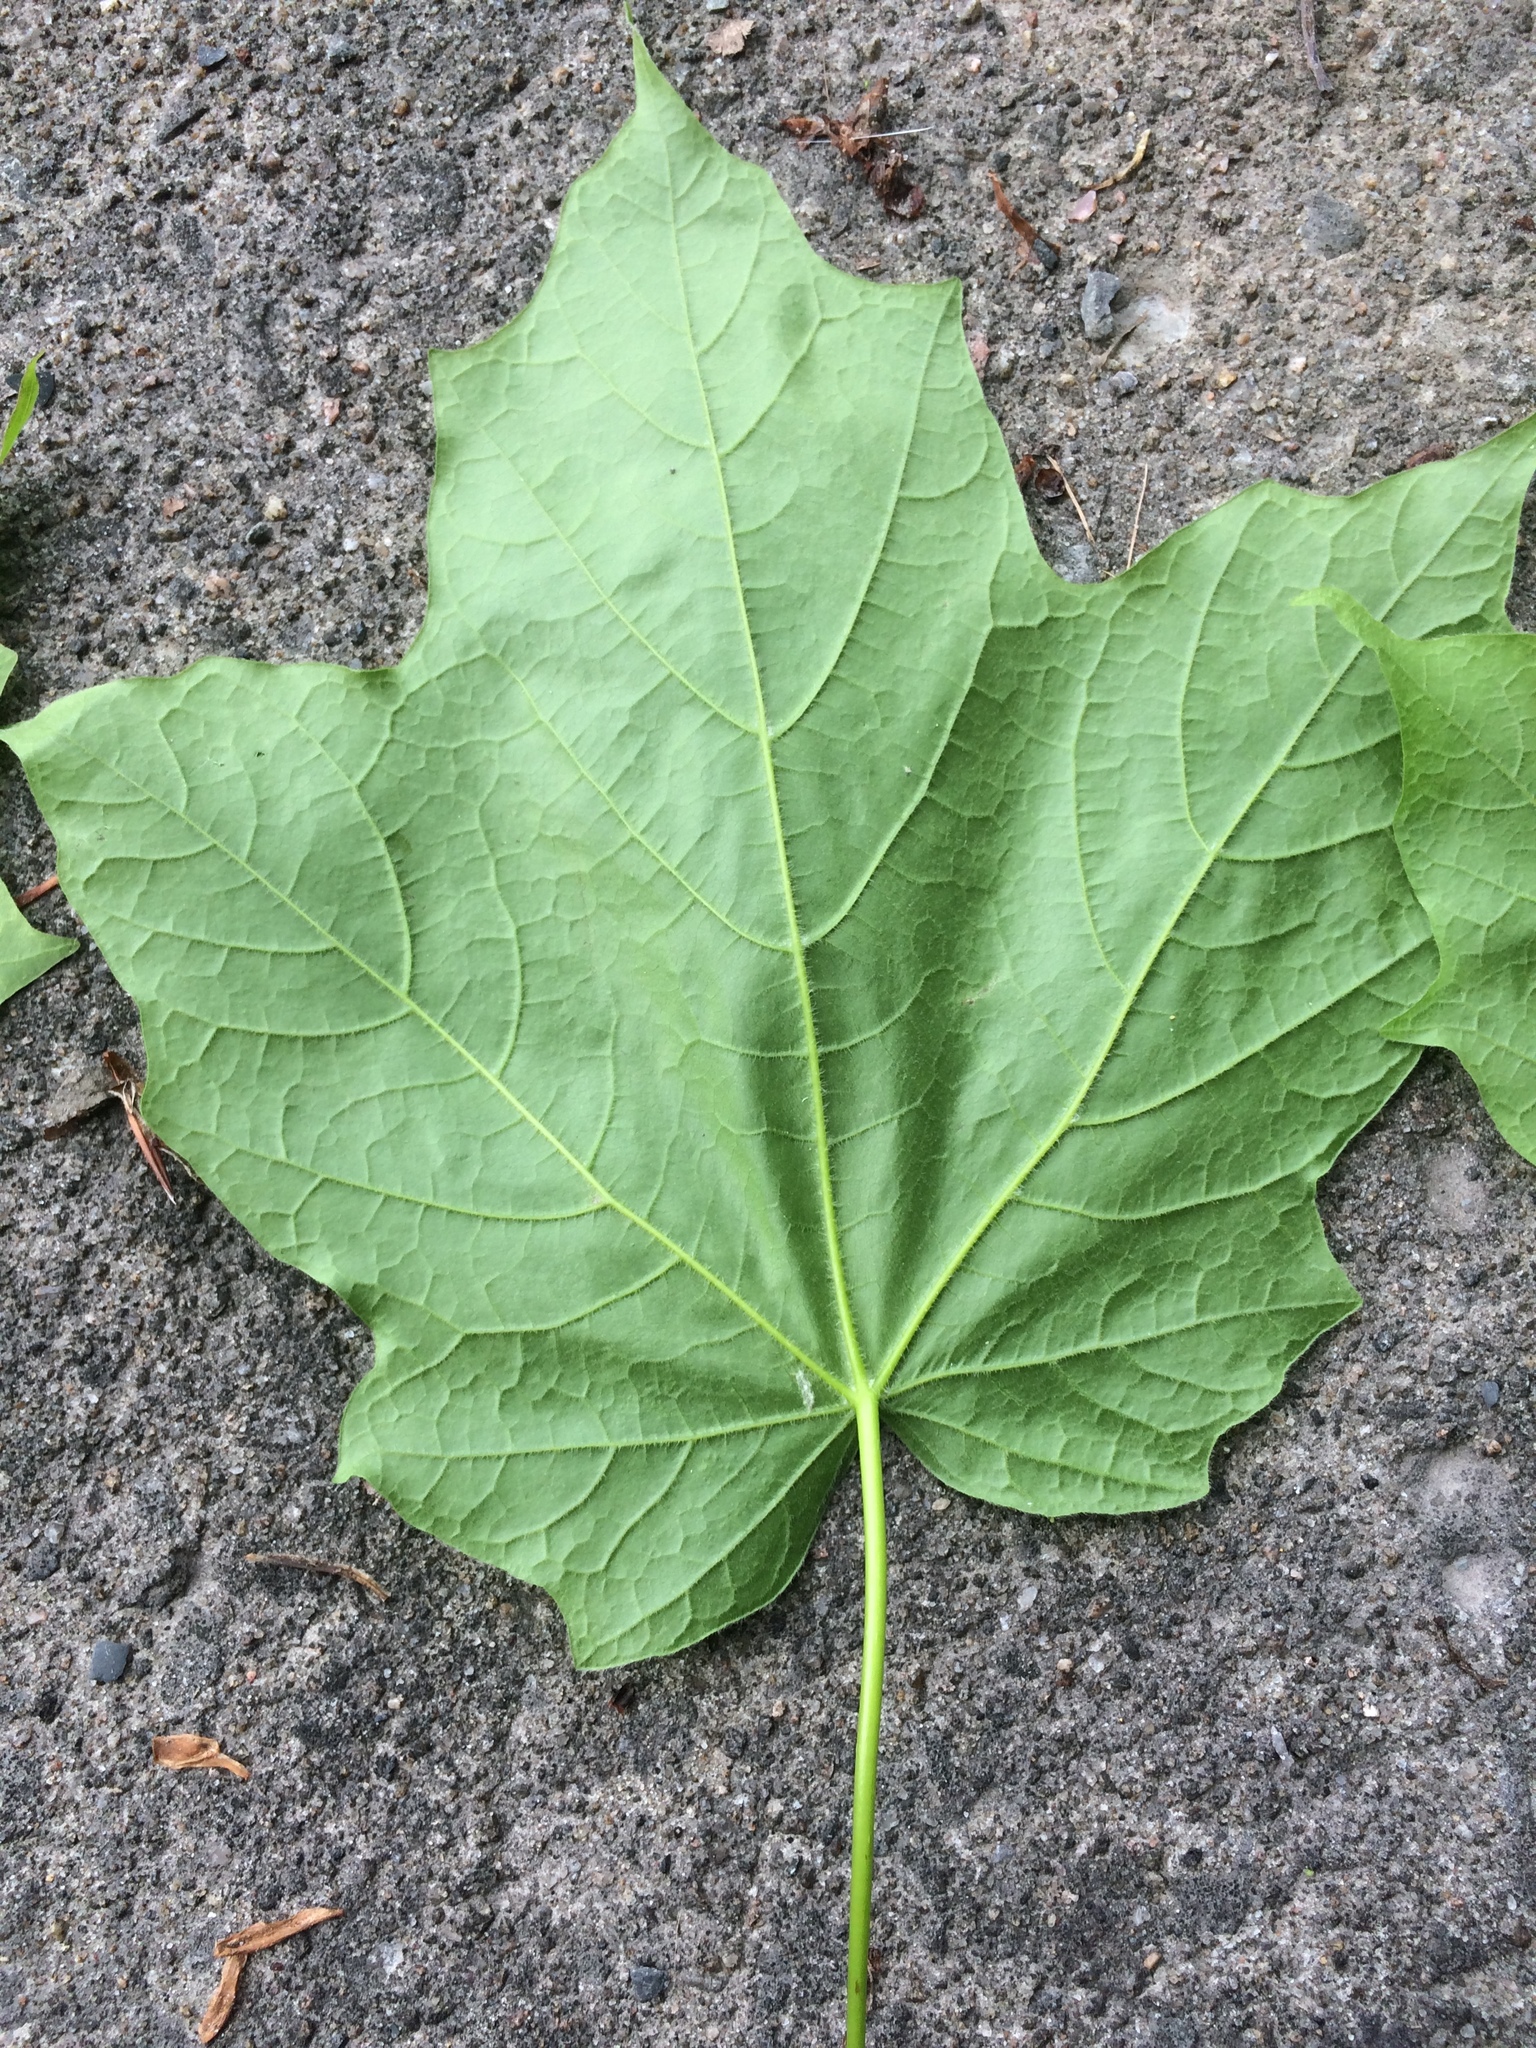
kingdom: Plantae
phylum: Tracheophyta
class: Magnoliopsida
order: Sapindales
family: Sapindaceae
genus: Acer
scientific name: Acer nigrum
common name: Black maple
